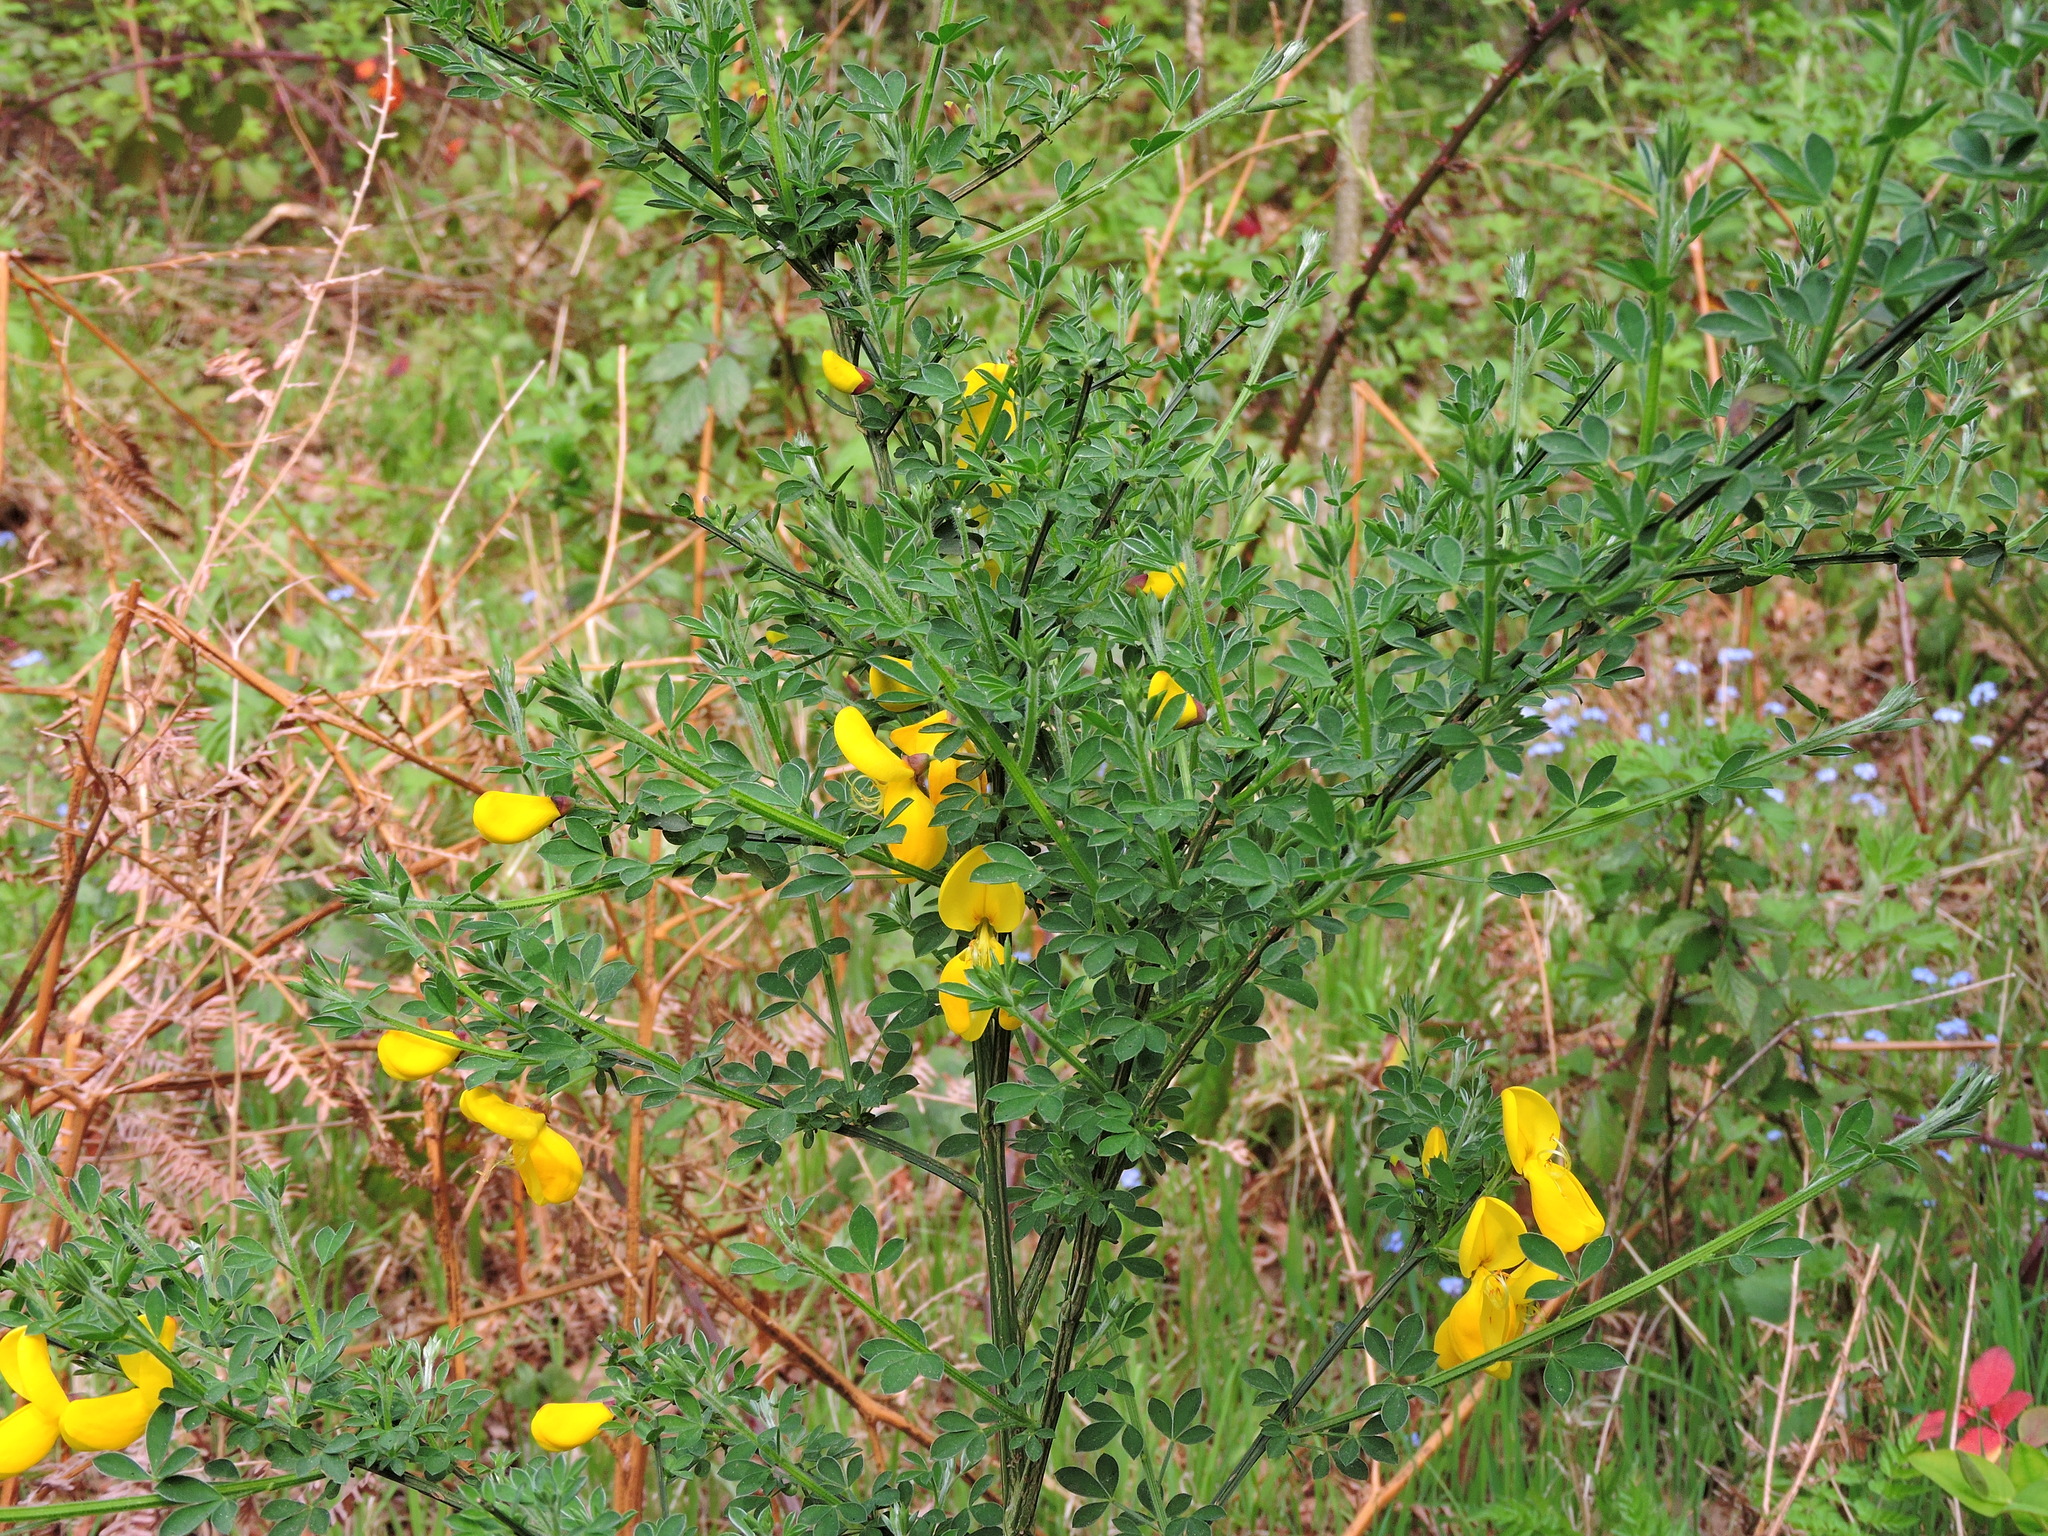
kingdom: Plantae
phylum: Tracheophyta
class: Magnoliopsida
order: Fabales
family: Fabaceae
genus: Cytisus
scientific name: Cytisus scoparius
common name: Scotch broom
